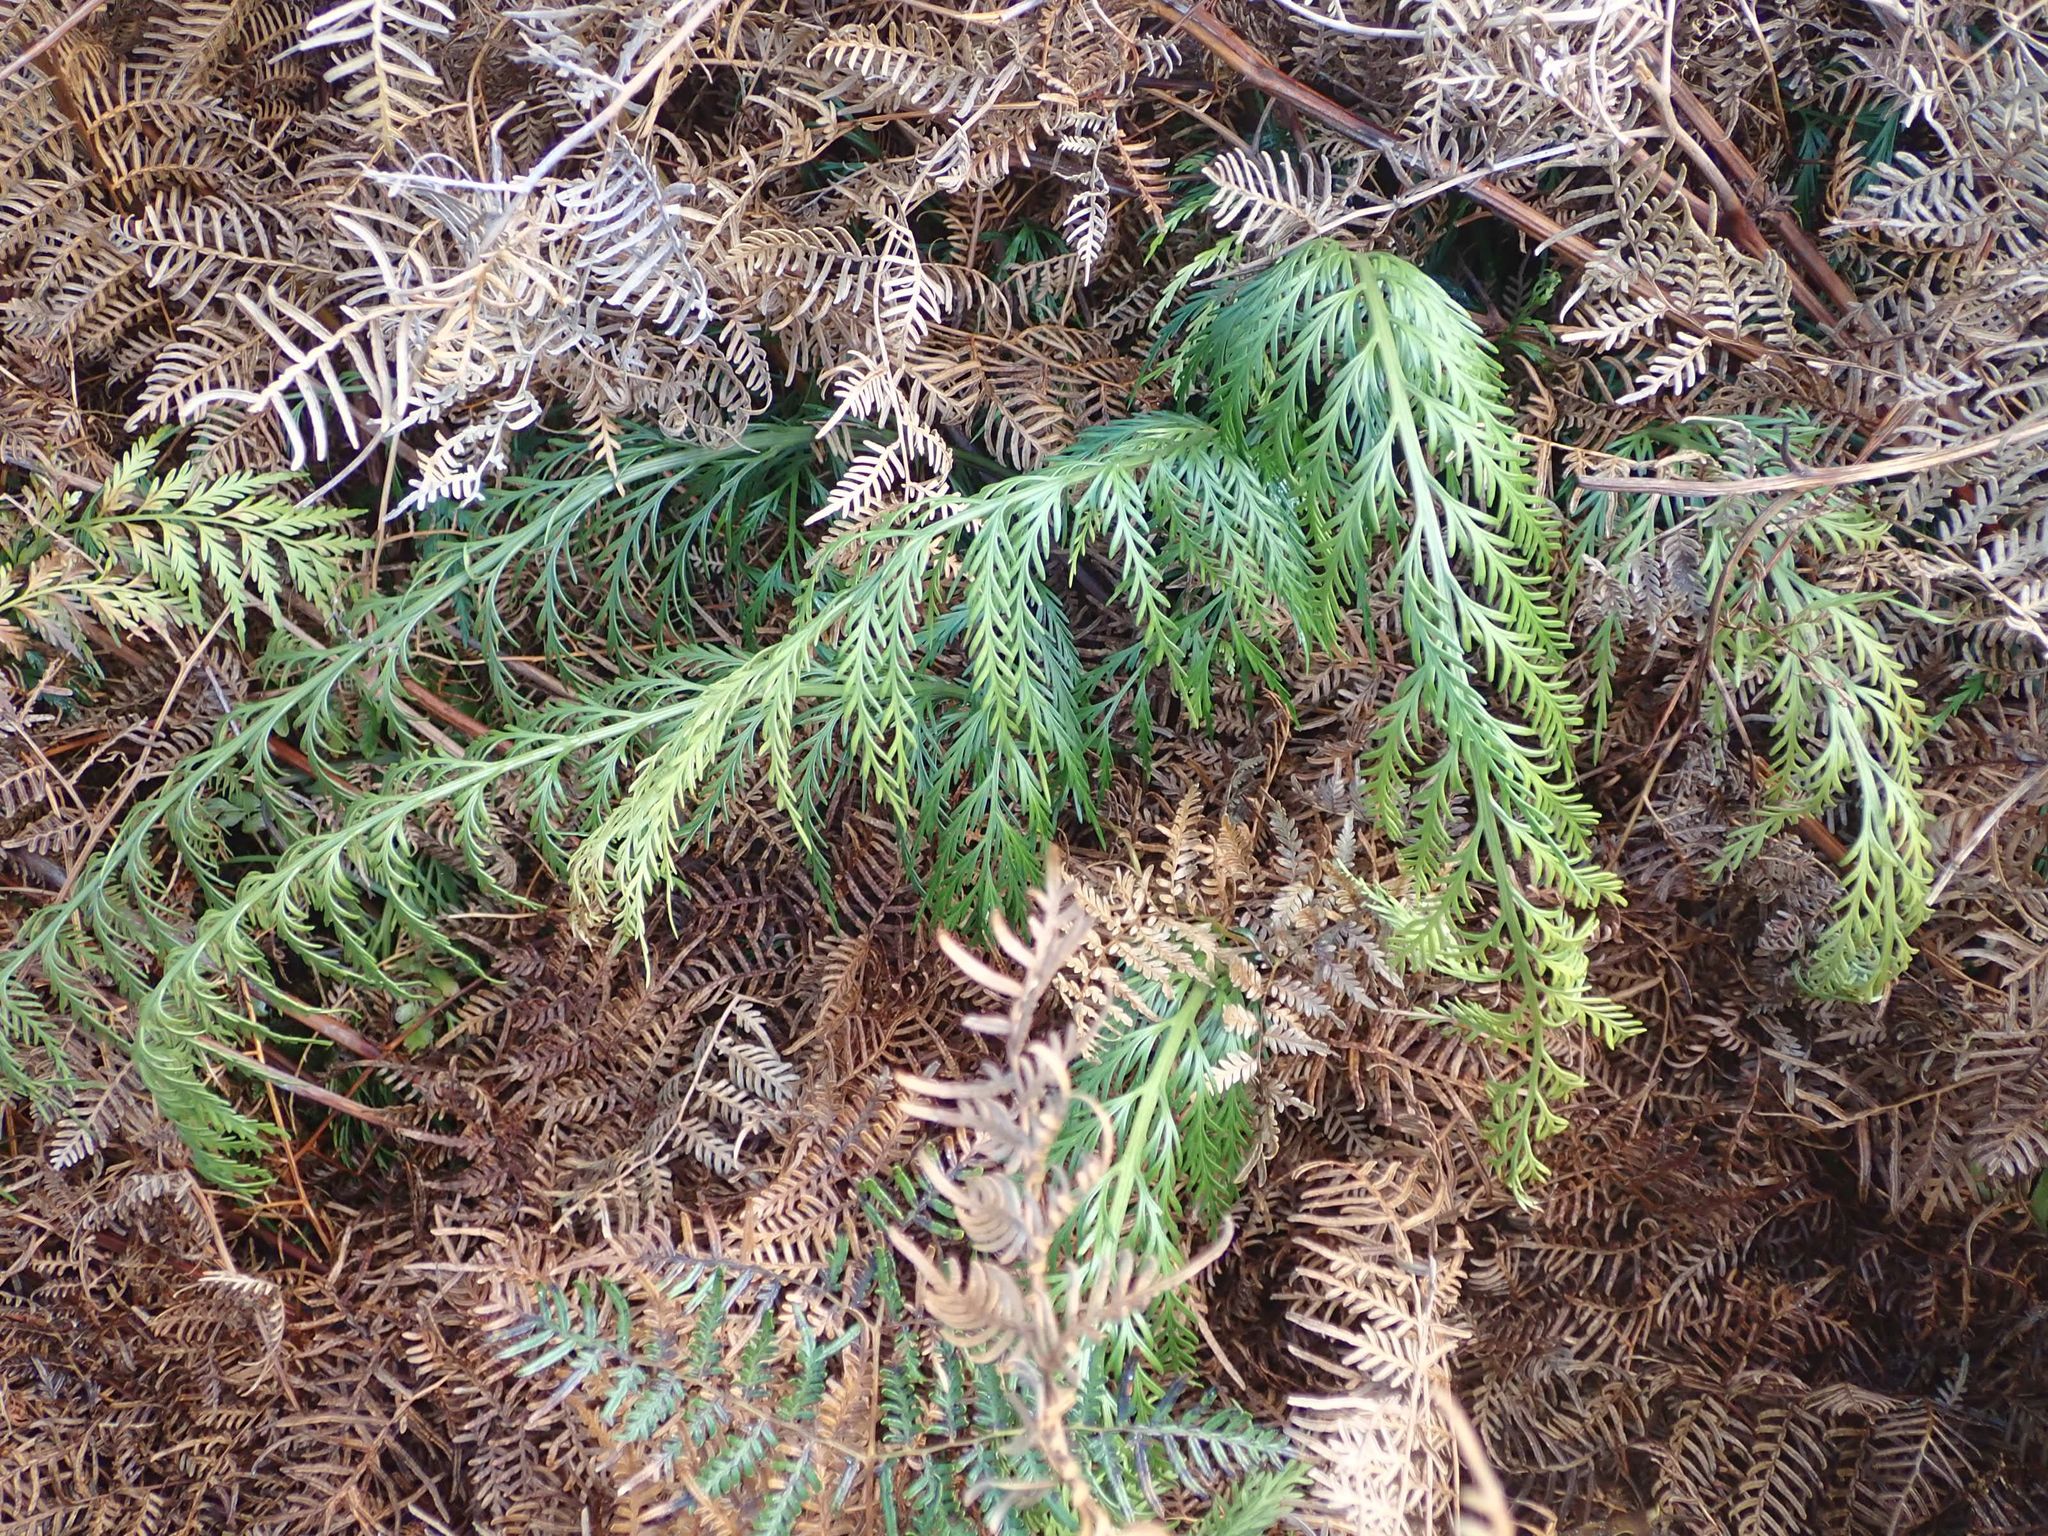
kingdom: Plantae
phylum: Tracheophyta
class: Polypodiopsida
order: Polypodiales
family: Aspleniaceae
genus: Asplenium
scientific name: Asplenium appendiculatum
